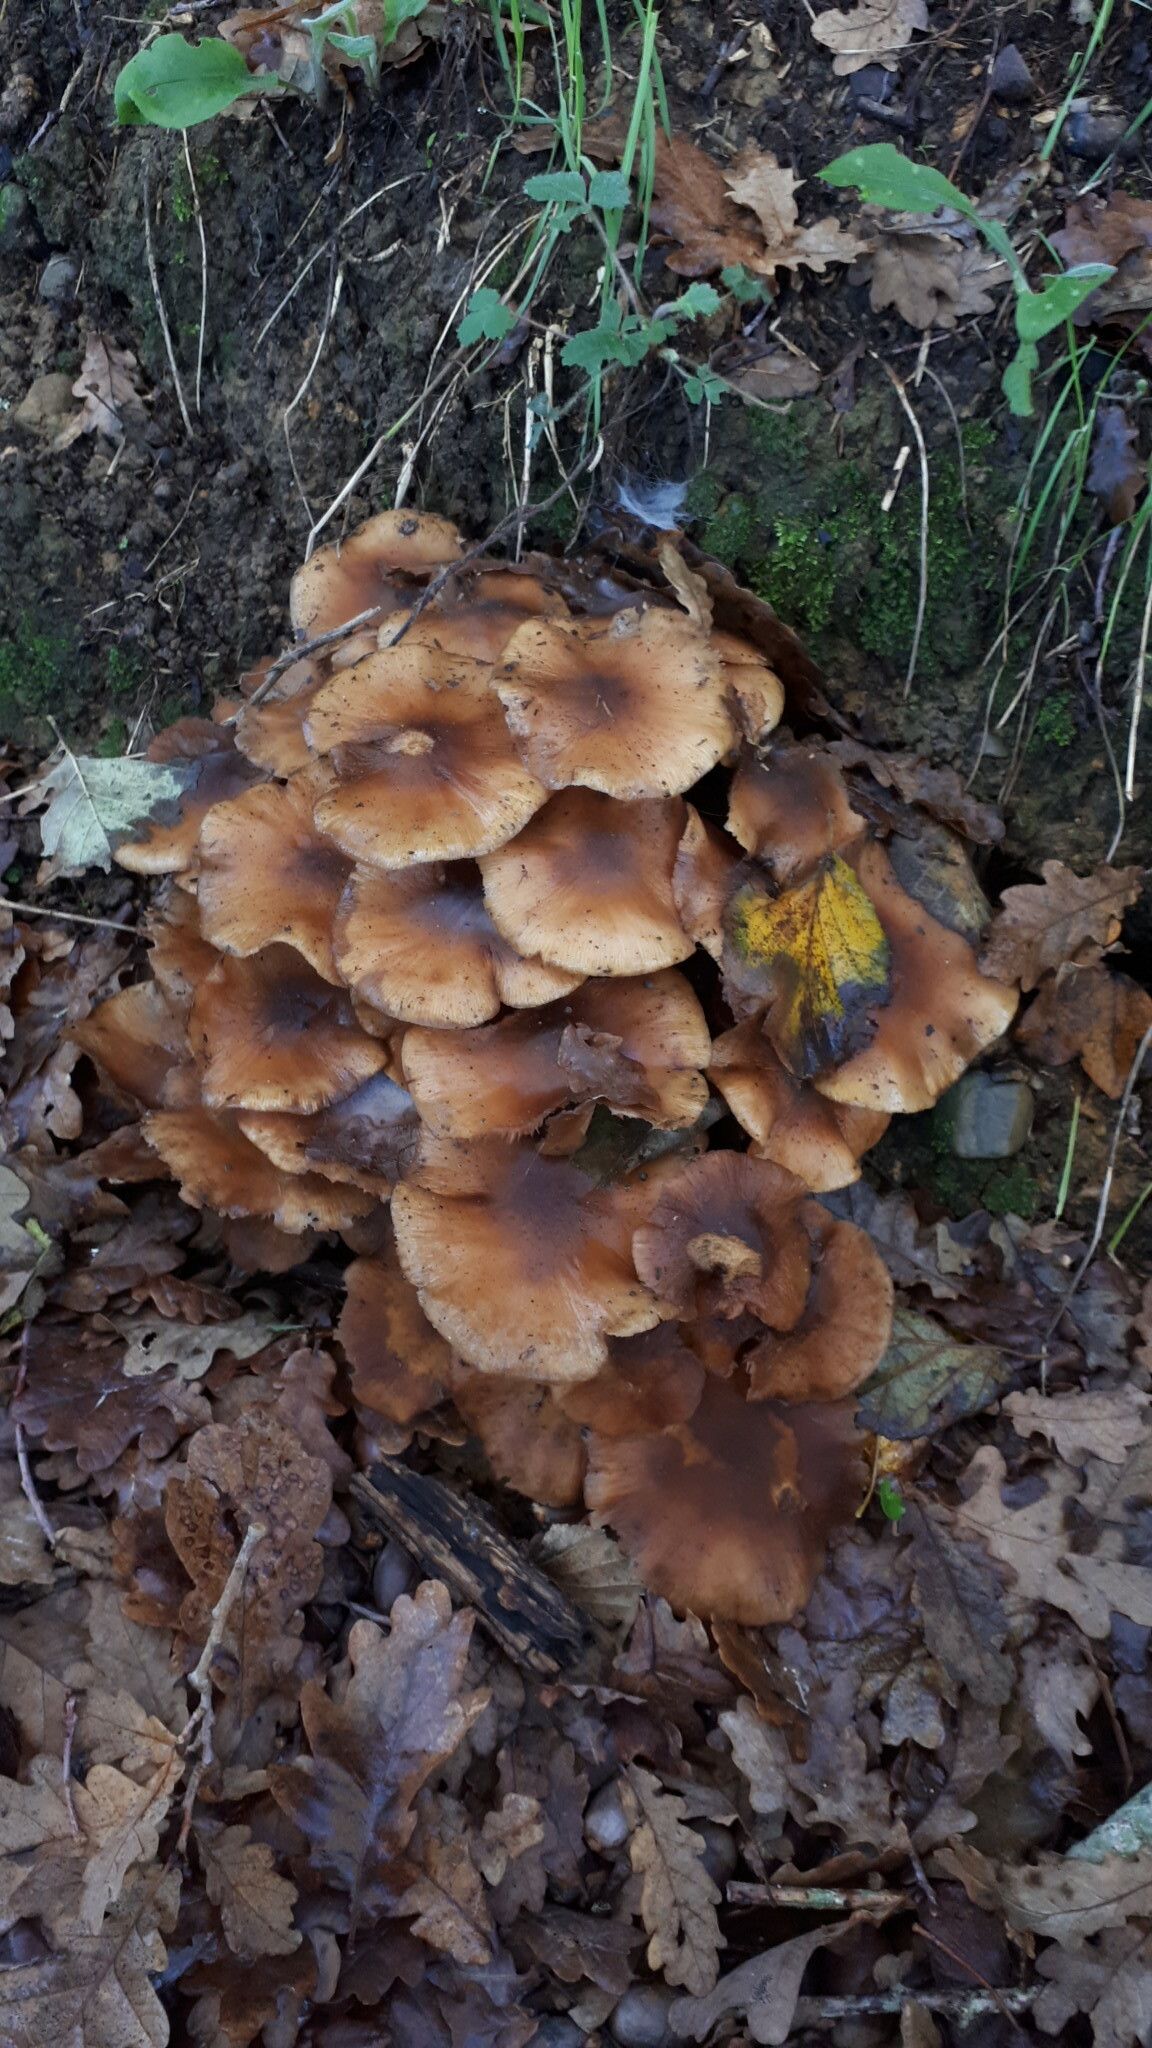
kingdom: Fungi
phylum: Basidiomycota
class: Agaricomycetes
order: Agaricales
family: Physalacriaceae
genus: Armillaria
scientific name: Armillaria mellea
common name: Honey fungus
